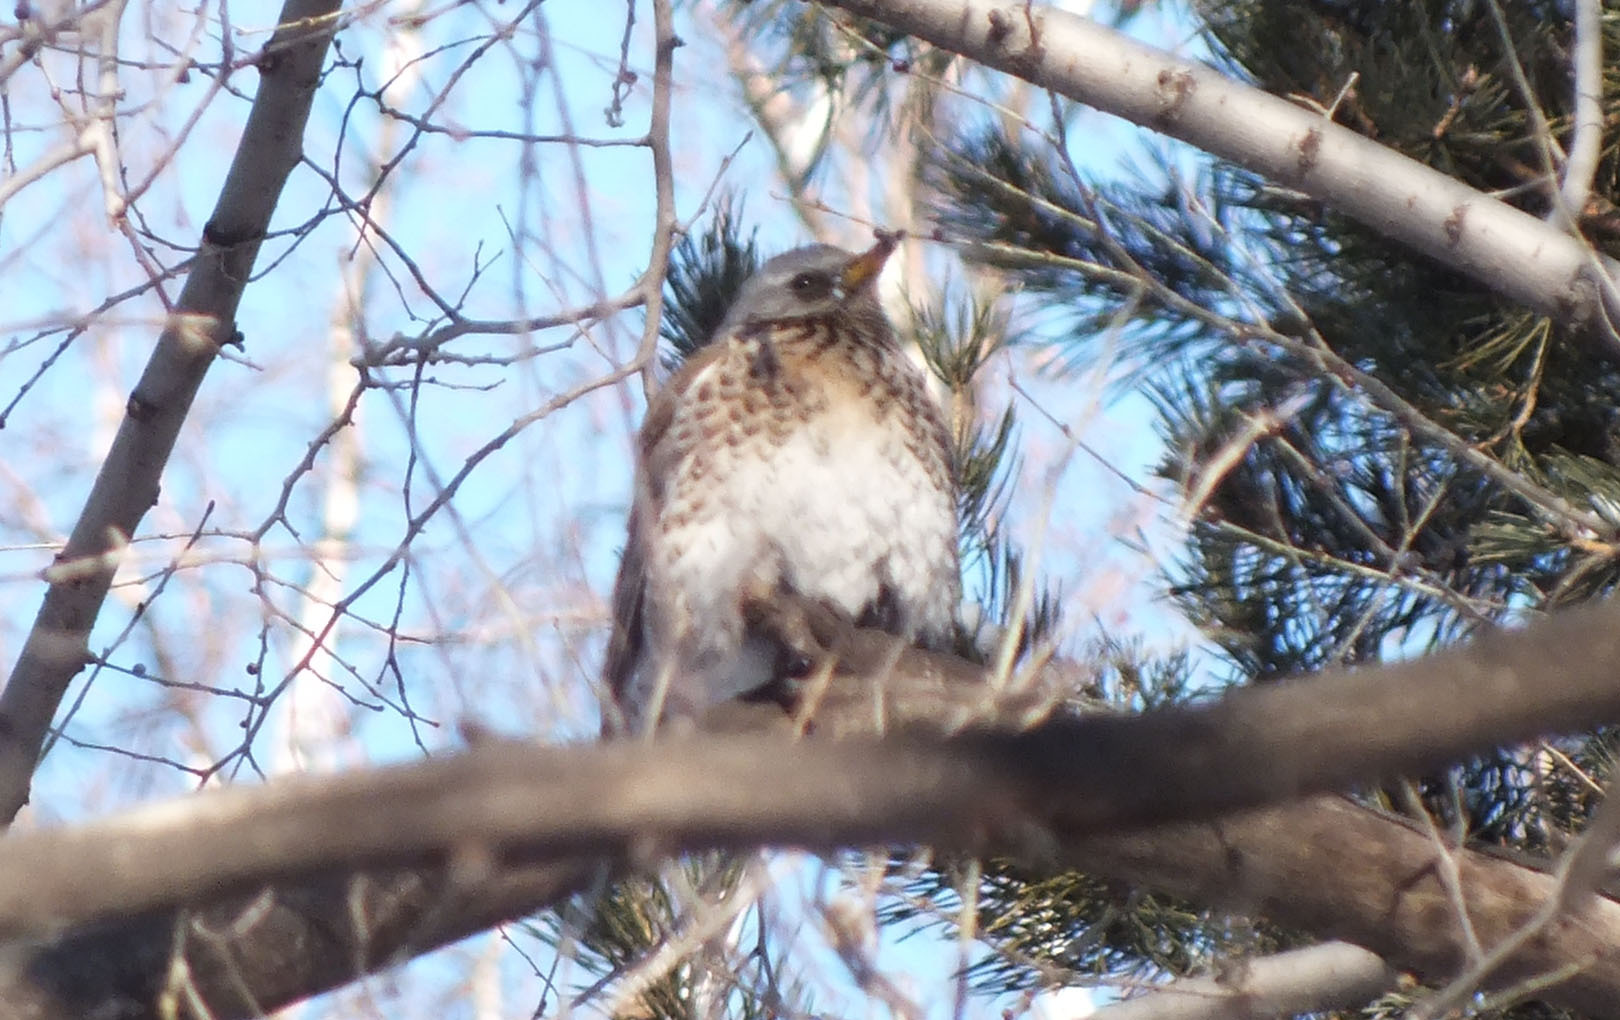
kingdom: Animalia
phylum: Chordata
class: Aves
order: Passeriformes
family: Turdidae
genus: Turdus
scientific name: Turdus pilaris
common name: Fieldfare
